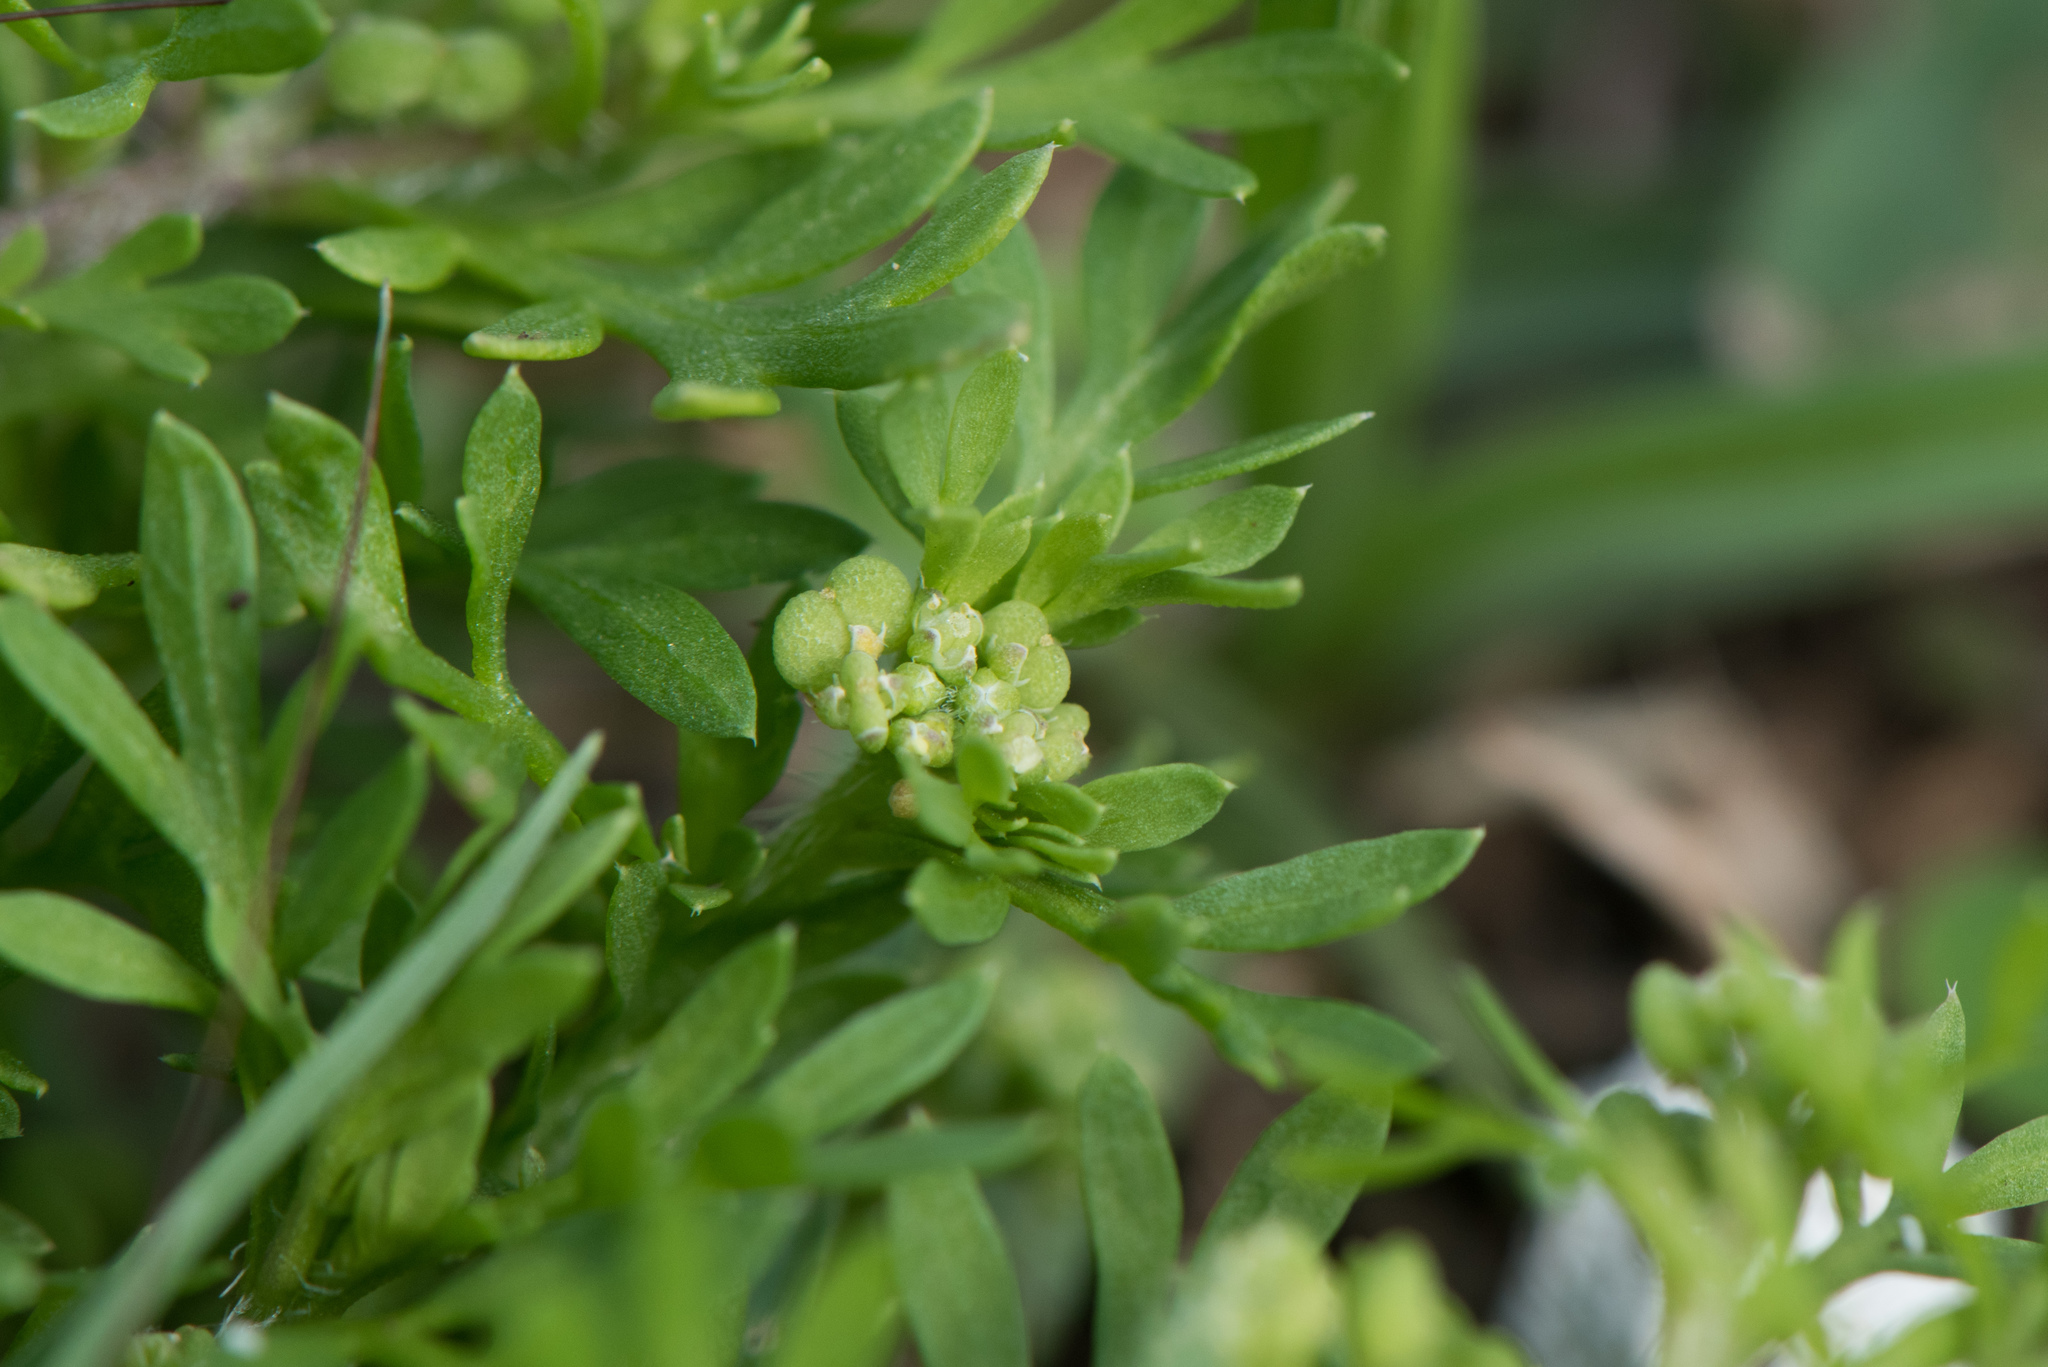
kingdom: Plantae
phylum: Tracheophyta
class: Magnoliopsida
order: Brassicales
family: Brassicaceae
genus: Lepidium
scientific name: Lepidium didymum
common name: Lesser swinecress
